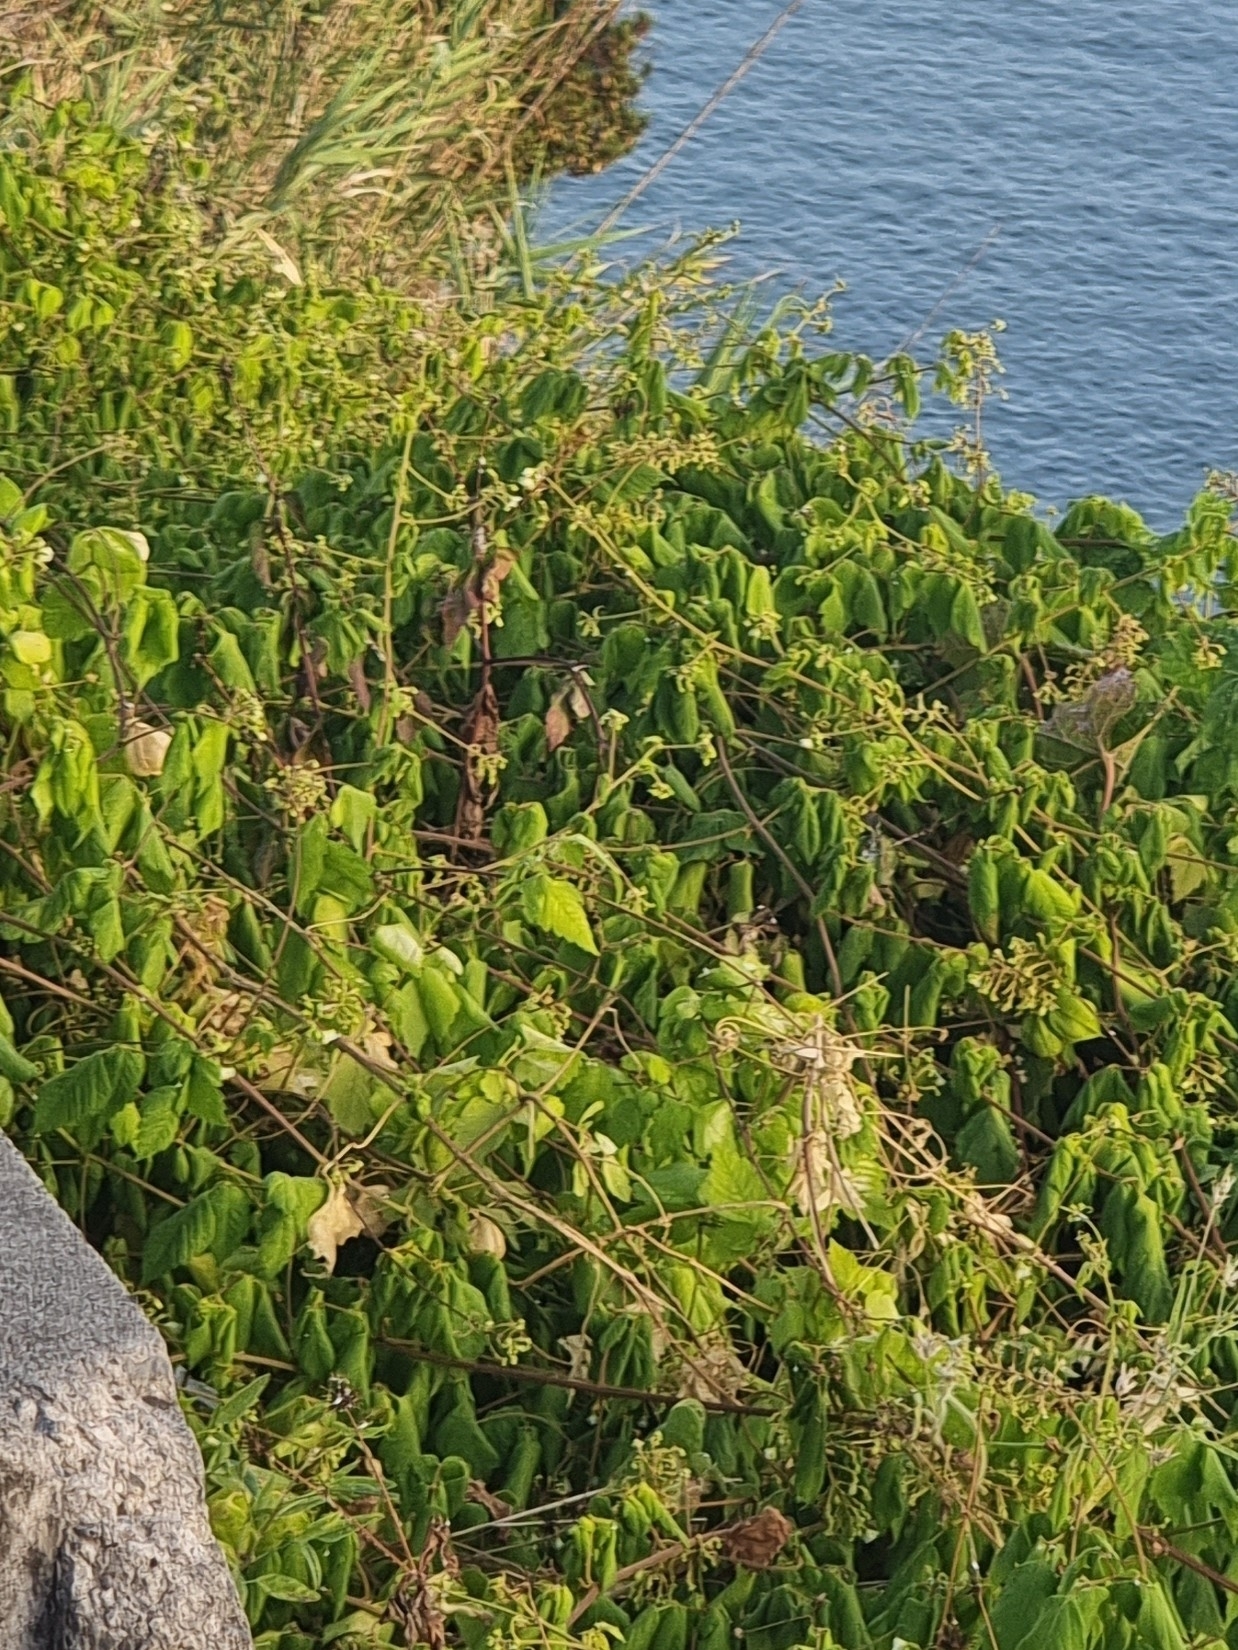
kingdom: Plantae
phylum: Tracheophyta
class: Magnoliopsida
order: Sapindales
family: Sapindaceae
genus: Cardiospermum
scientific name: Cardiospermum grandiflorum
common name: Balloon vine
